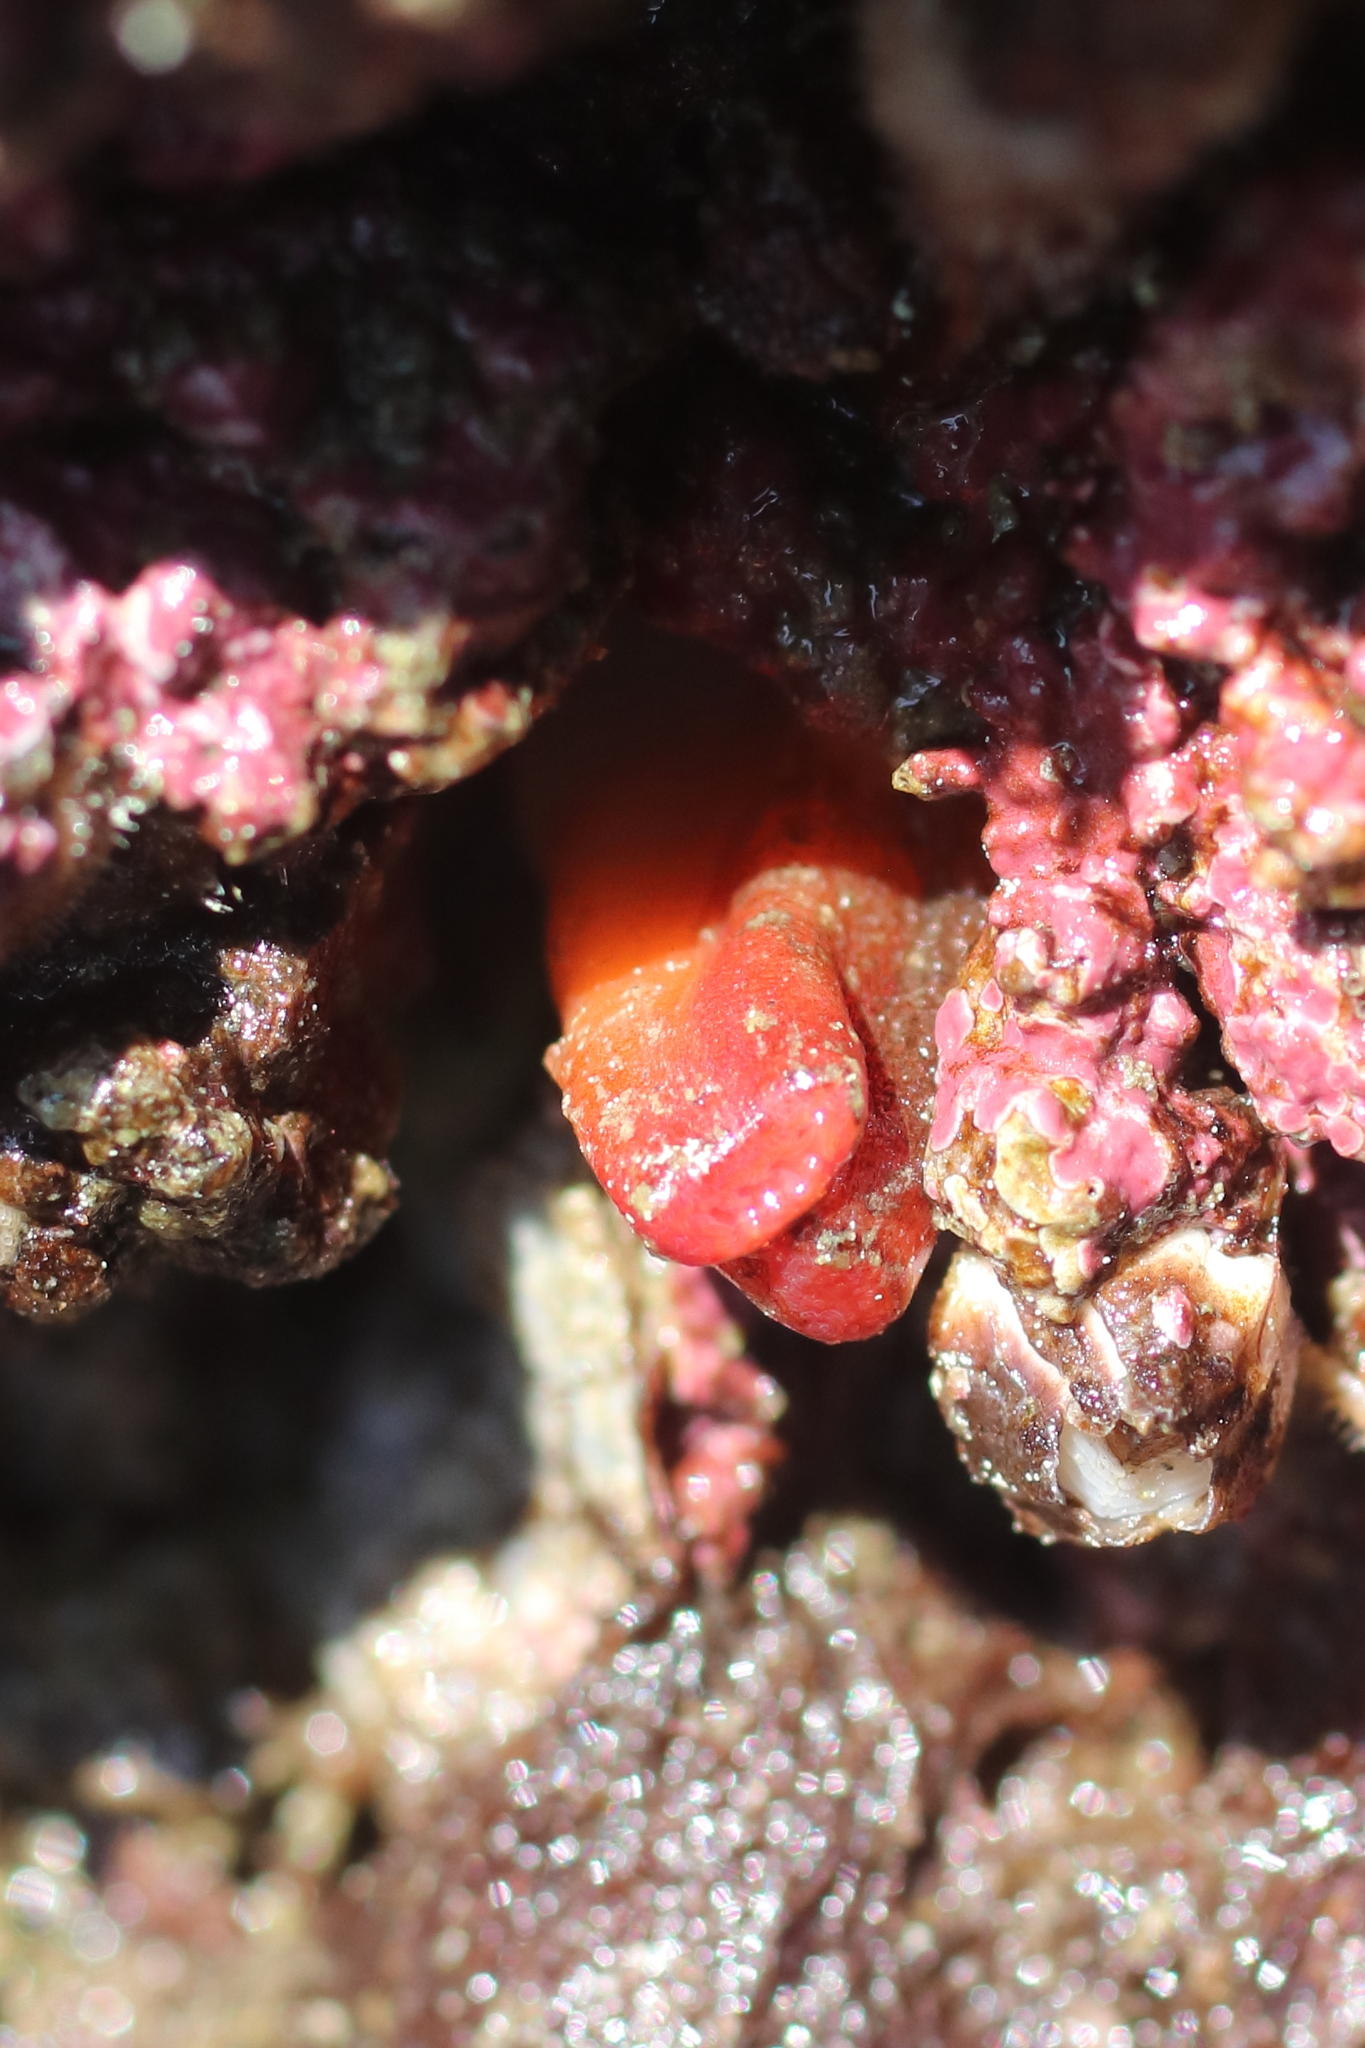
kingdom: Animalia
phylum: Mollusca
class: Bivalvia
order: Adapedonta
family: Hiatellidae
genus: Hiatella
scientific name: Hiatella arctica
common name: Arctic hiatella
